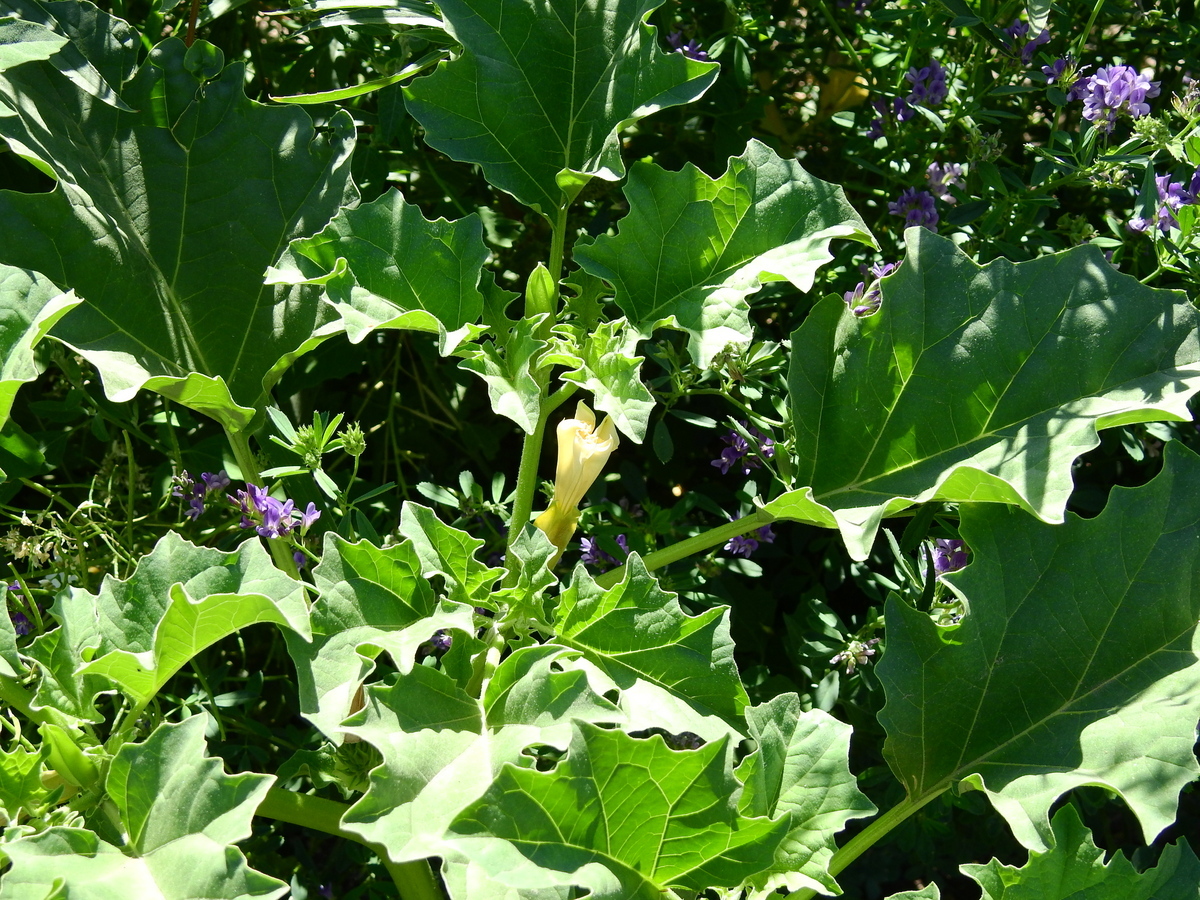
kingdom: Plantae
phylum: Tracheophyta
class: Magnoliopsida
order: Solanales
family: Solanaceae
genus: Datura
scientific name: Datura ferox
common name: Angel's-trumpets
